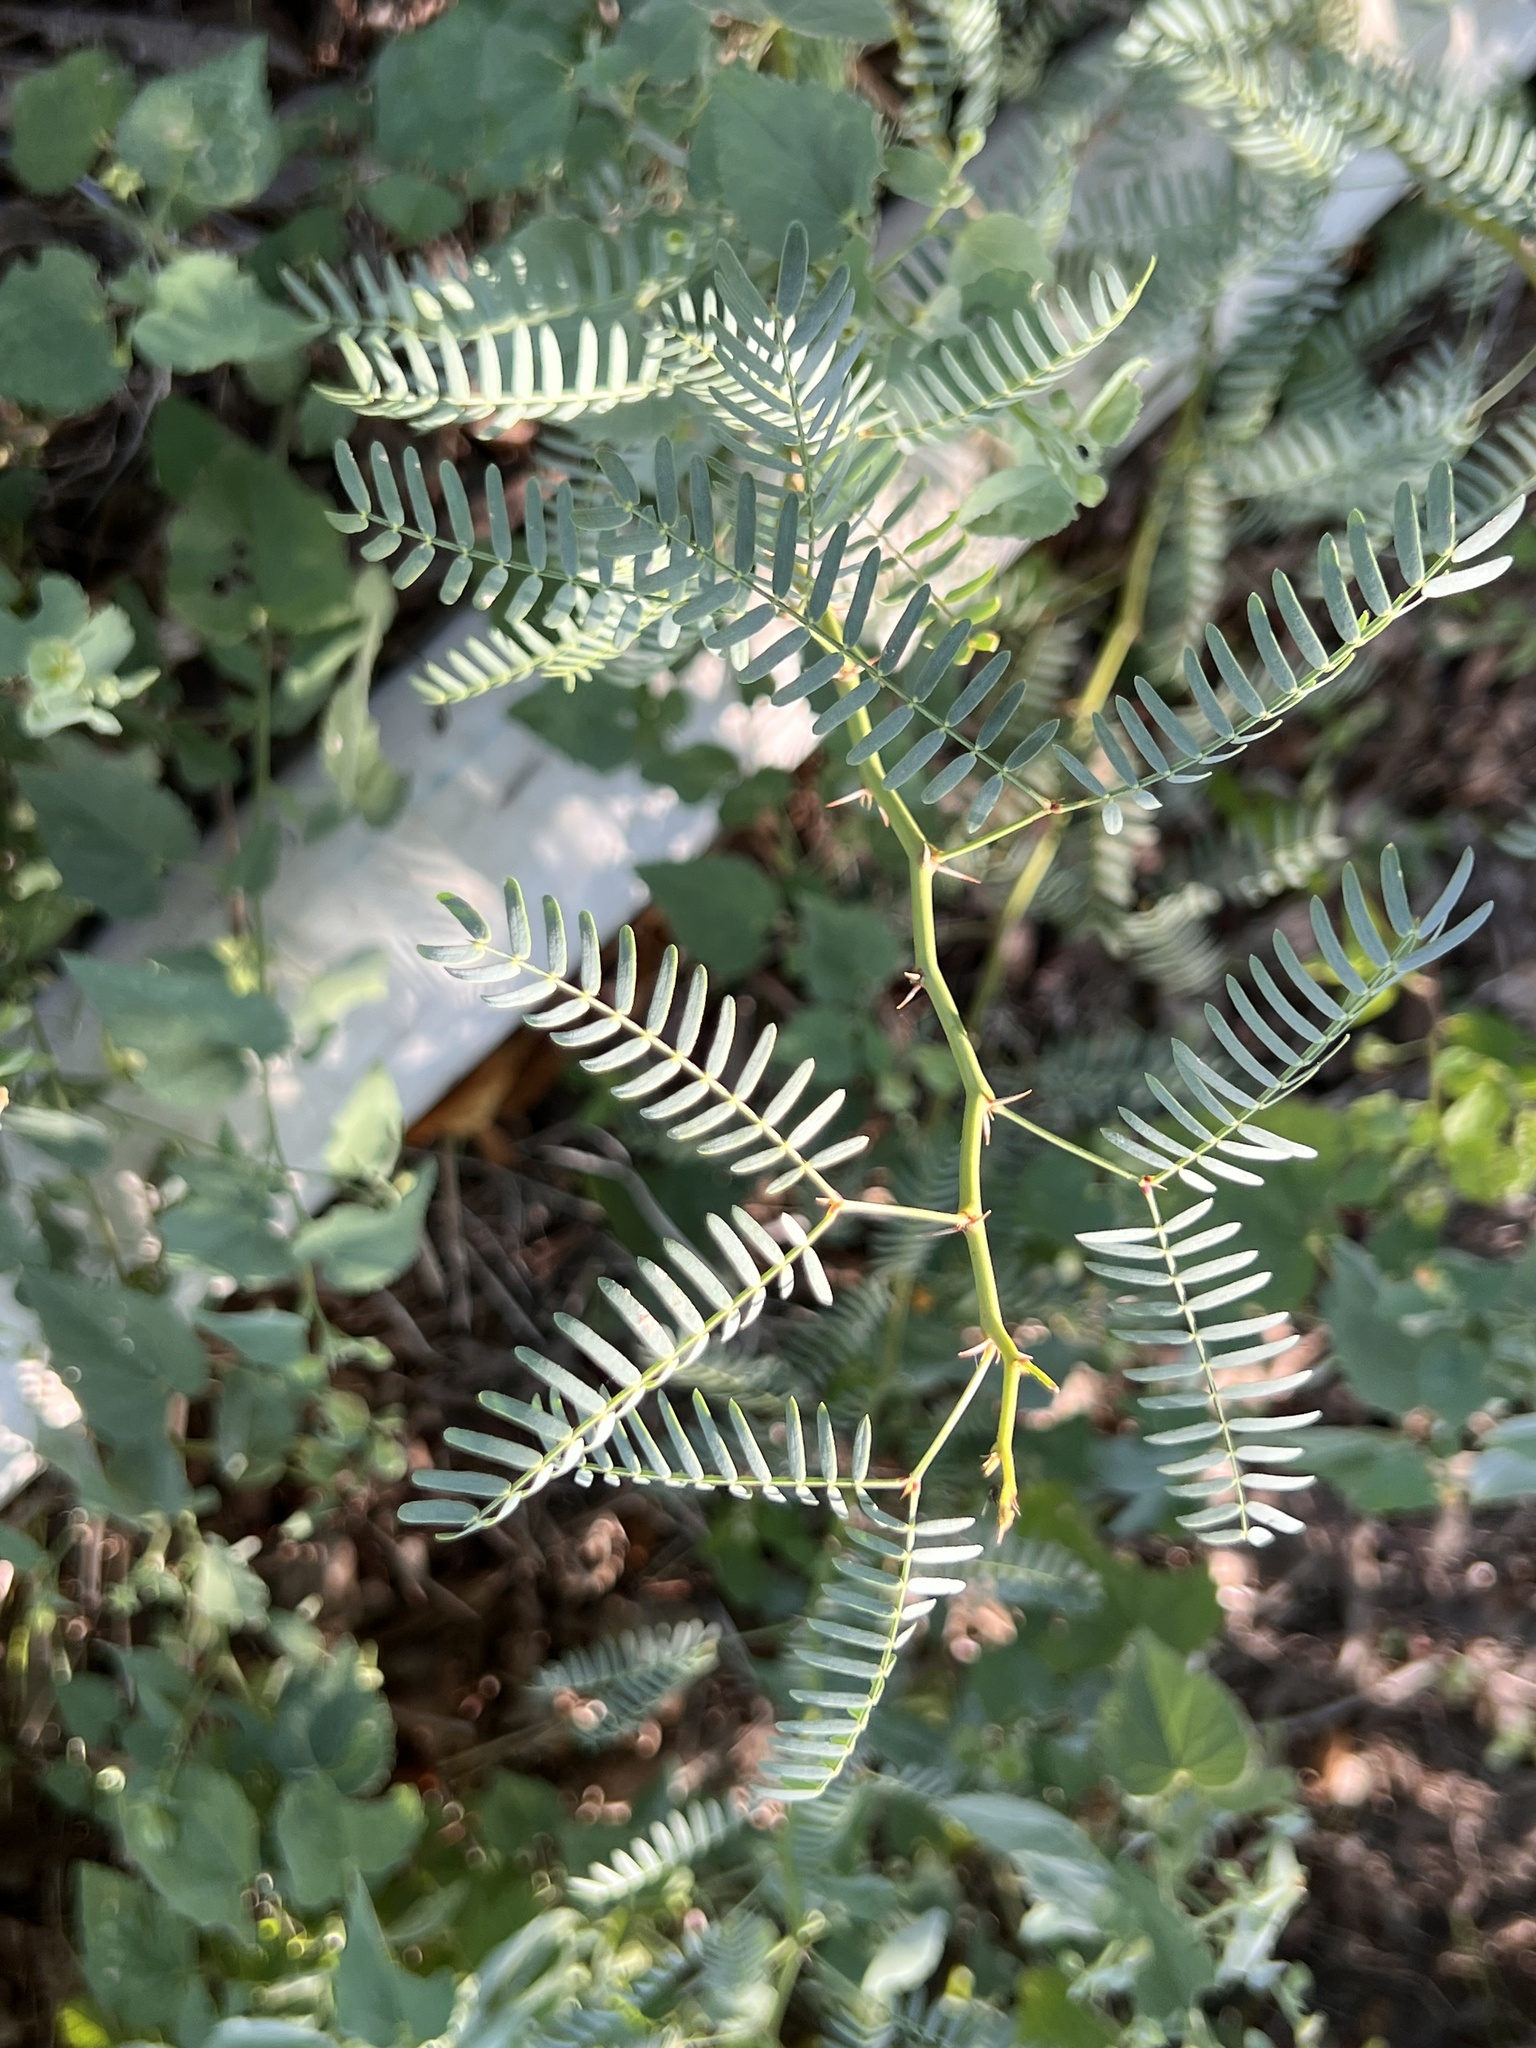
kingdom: Plantae
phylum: Tracheophyta
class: Magnoliopsida
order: Fabales
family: Fabaceae
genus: Prosopis
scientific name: Prosopis glandulosa
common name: Honey mesquite
